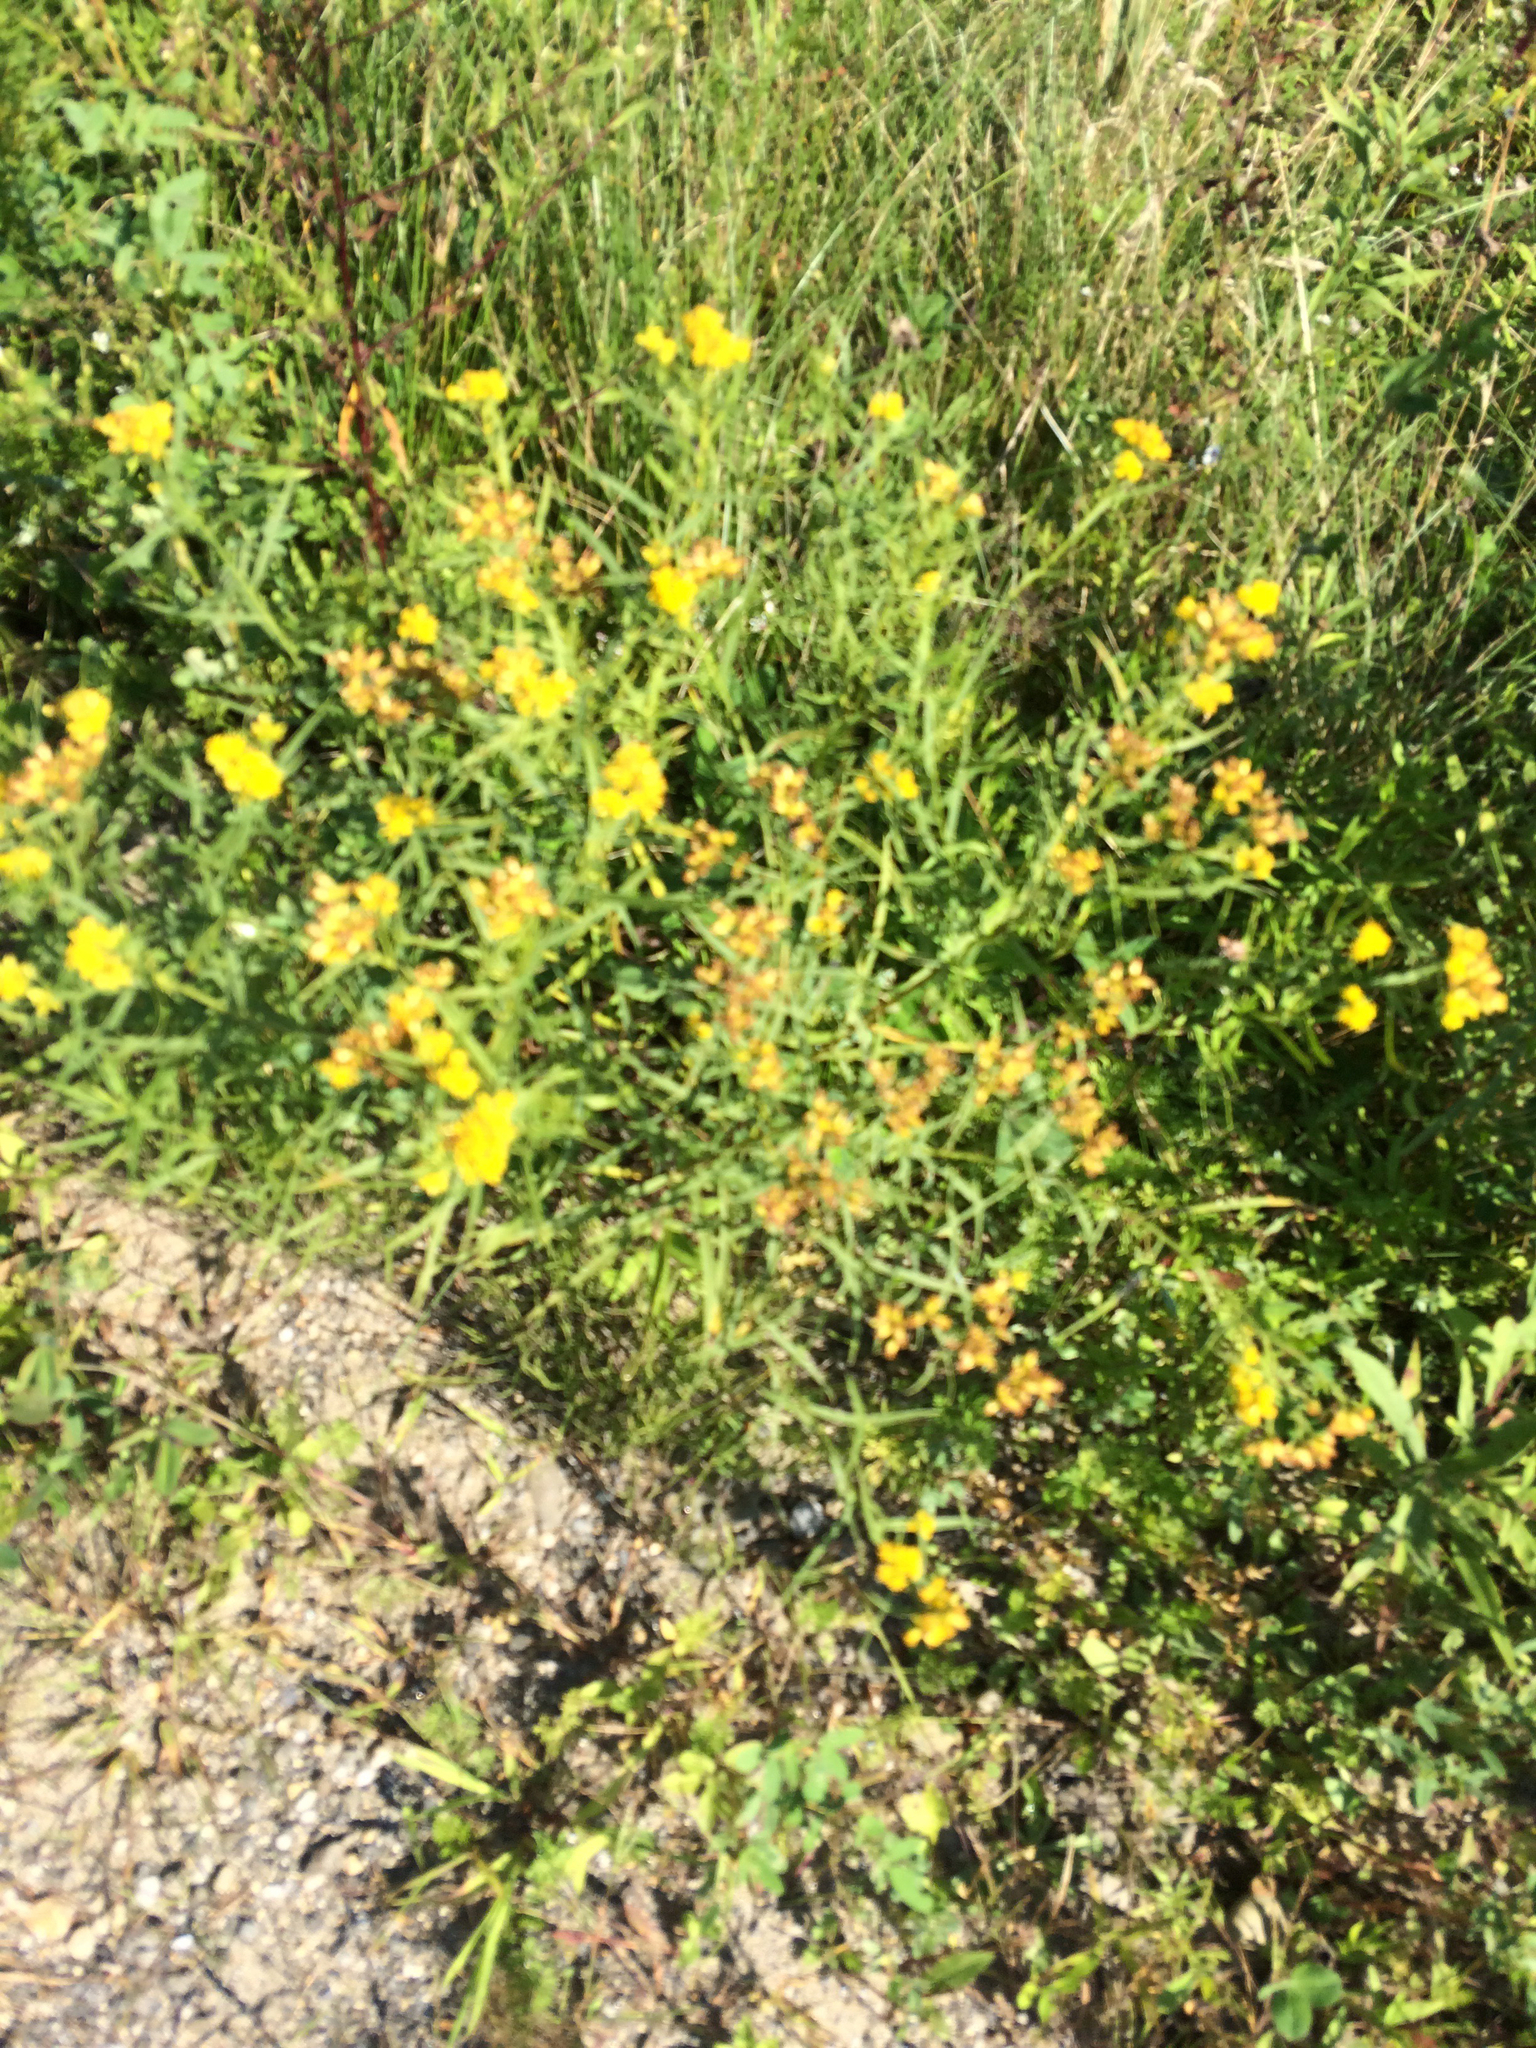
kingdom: Plantae
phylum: Tracheophyta
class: Magnoliopsida
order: Asterales
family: Asteraceae
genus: Euthamia
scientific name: Euthamia graminifolia
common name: Common goldentop
